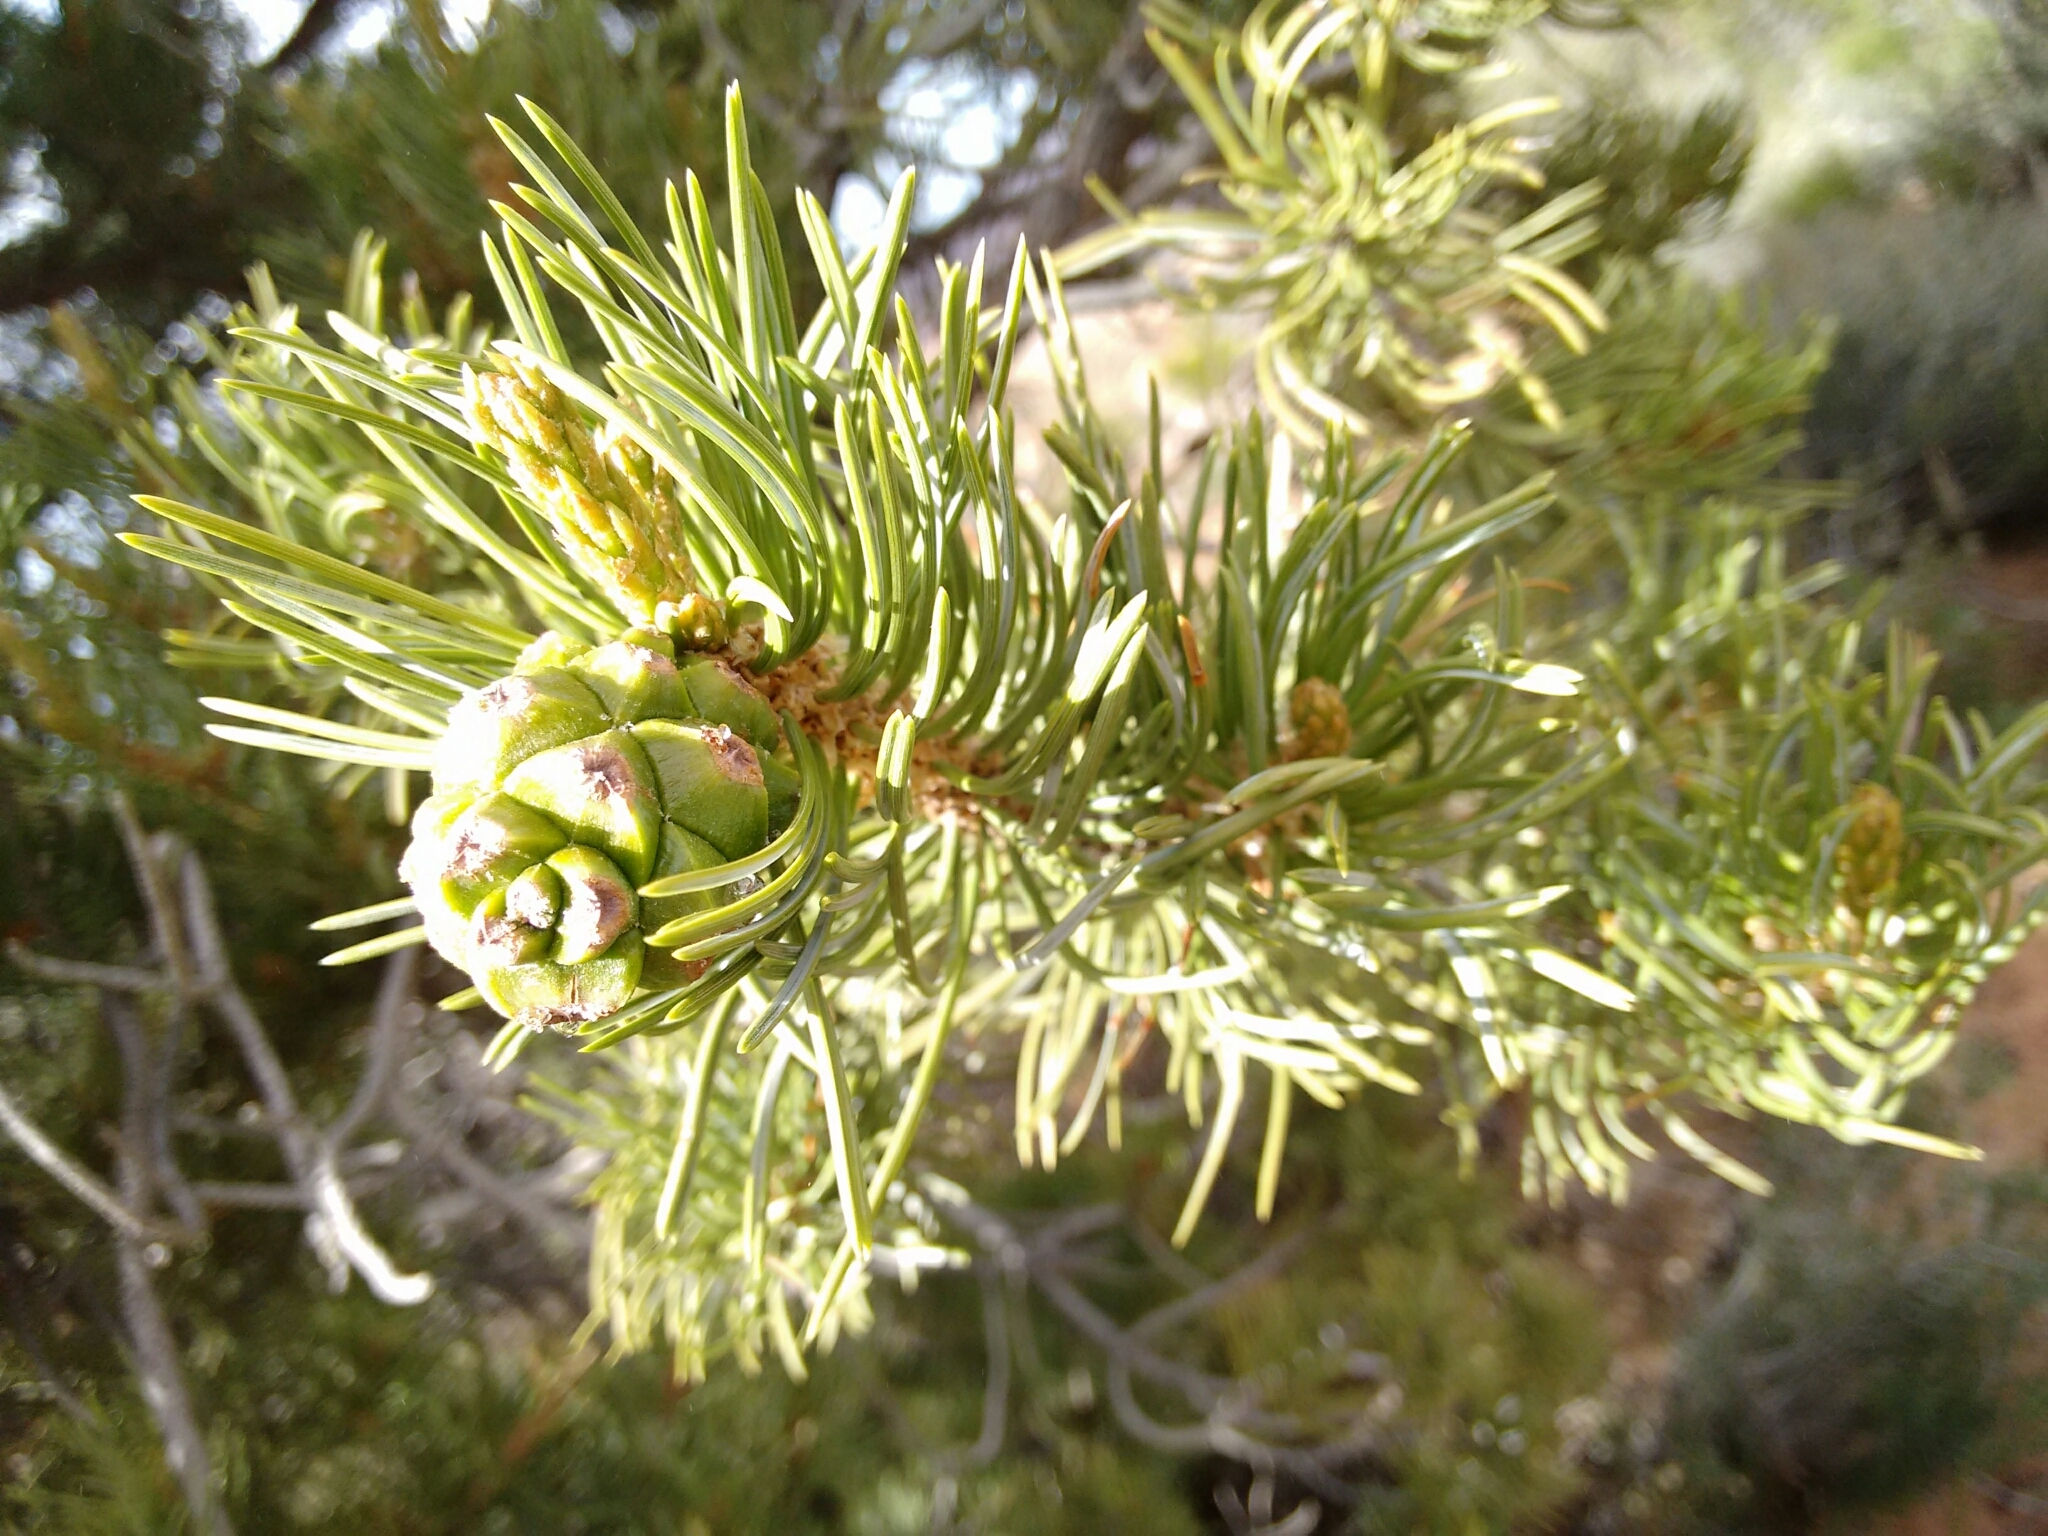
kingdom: Plantae
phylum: Tracheophyta
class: Pinopsida
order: Pinales
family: Pinaceae
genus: Pinus
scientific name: Pinus edulis
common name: Colorado pinyon
